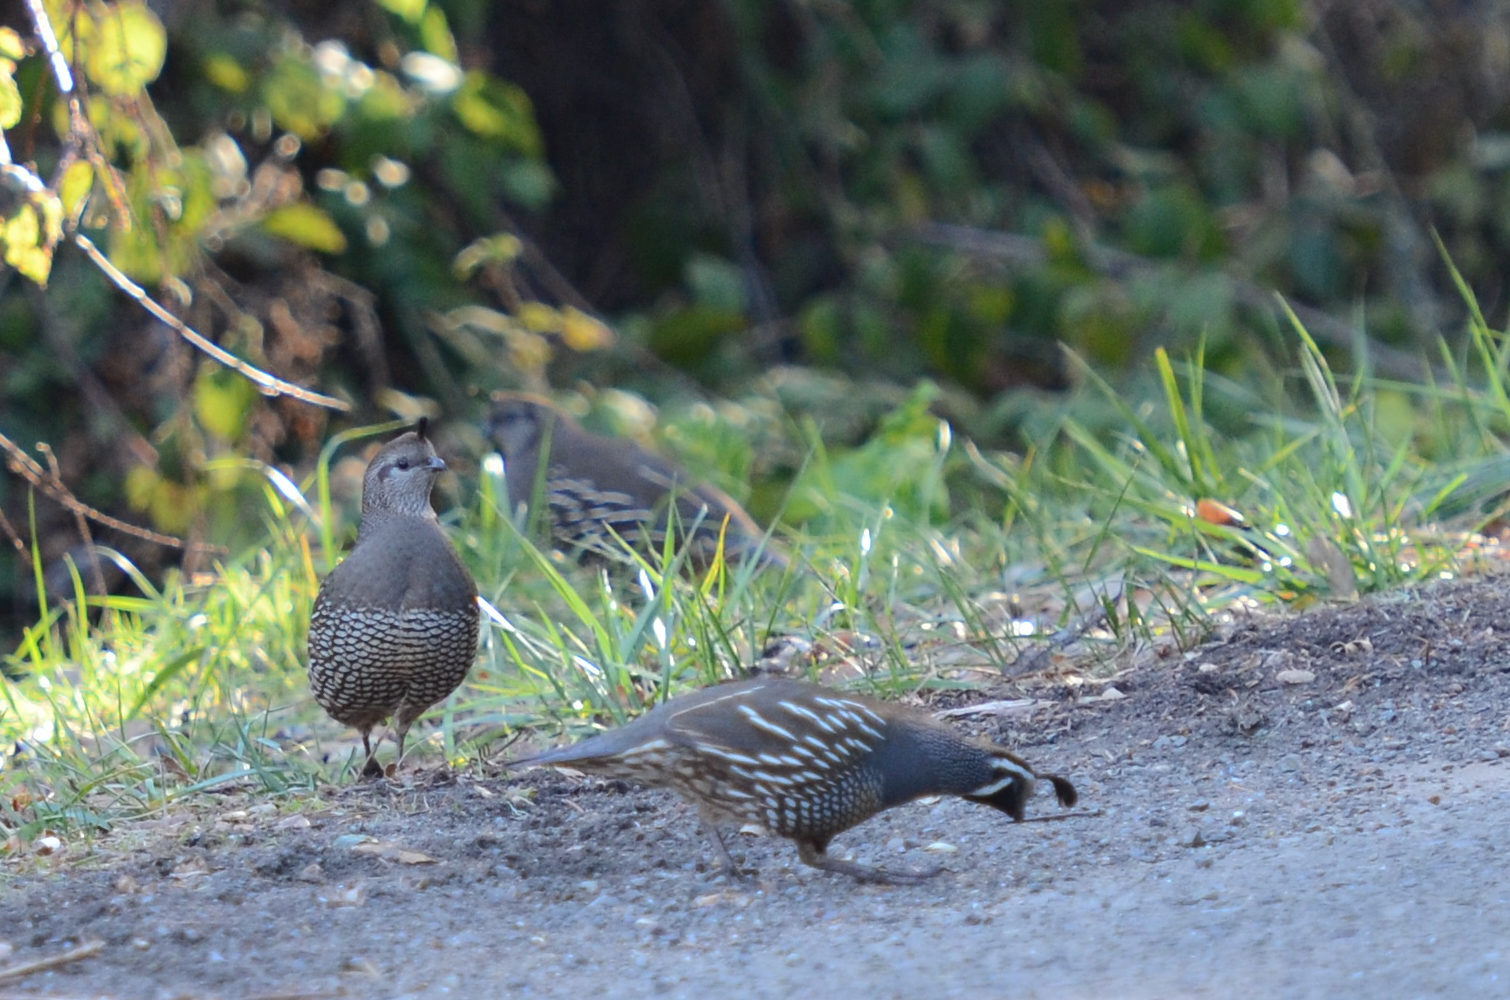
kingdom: Animalia
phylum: Chordata
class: Aves
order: Galliformes
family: Odontophoridae
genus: Callipepla
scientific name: Callipepla californica
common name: California quail
